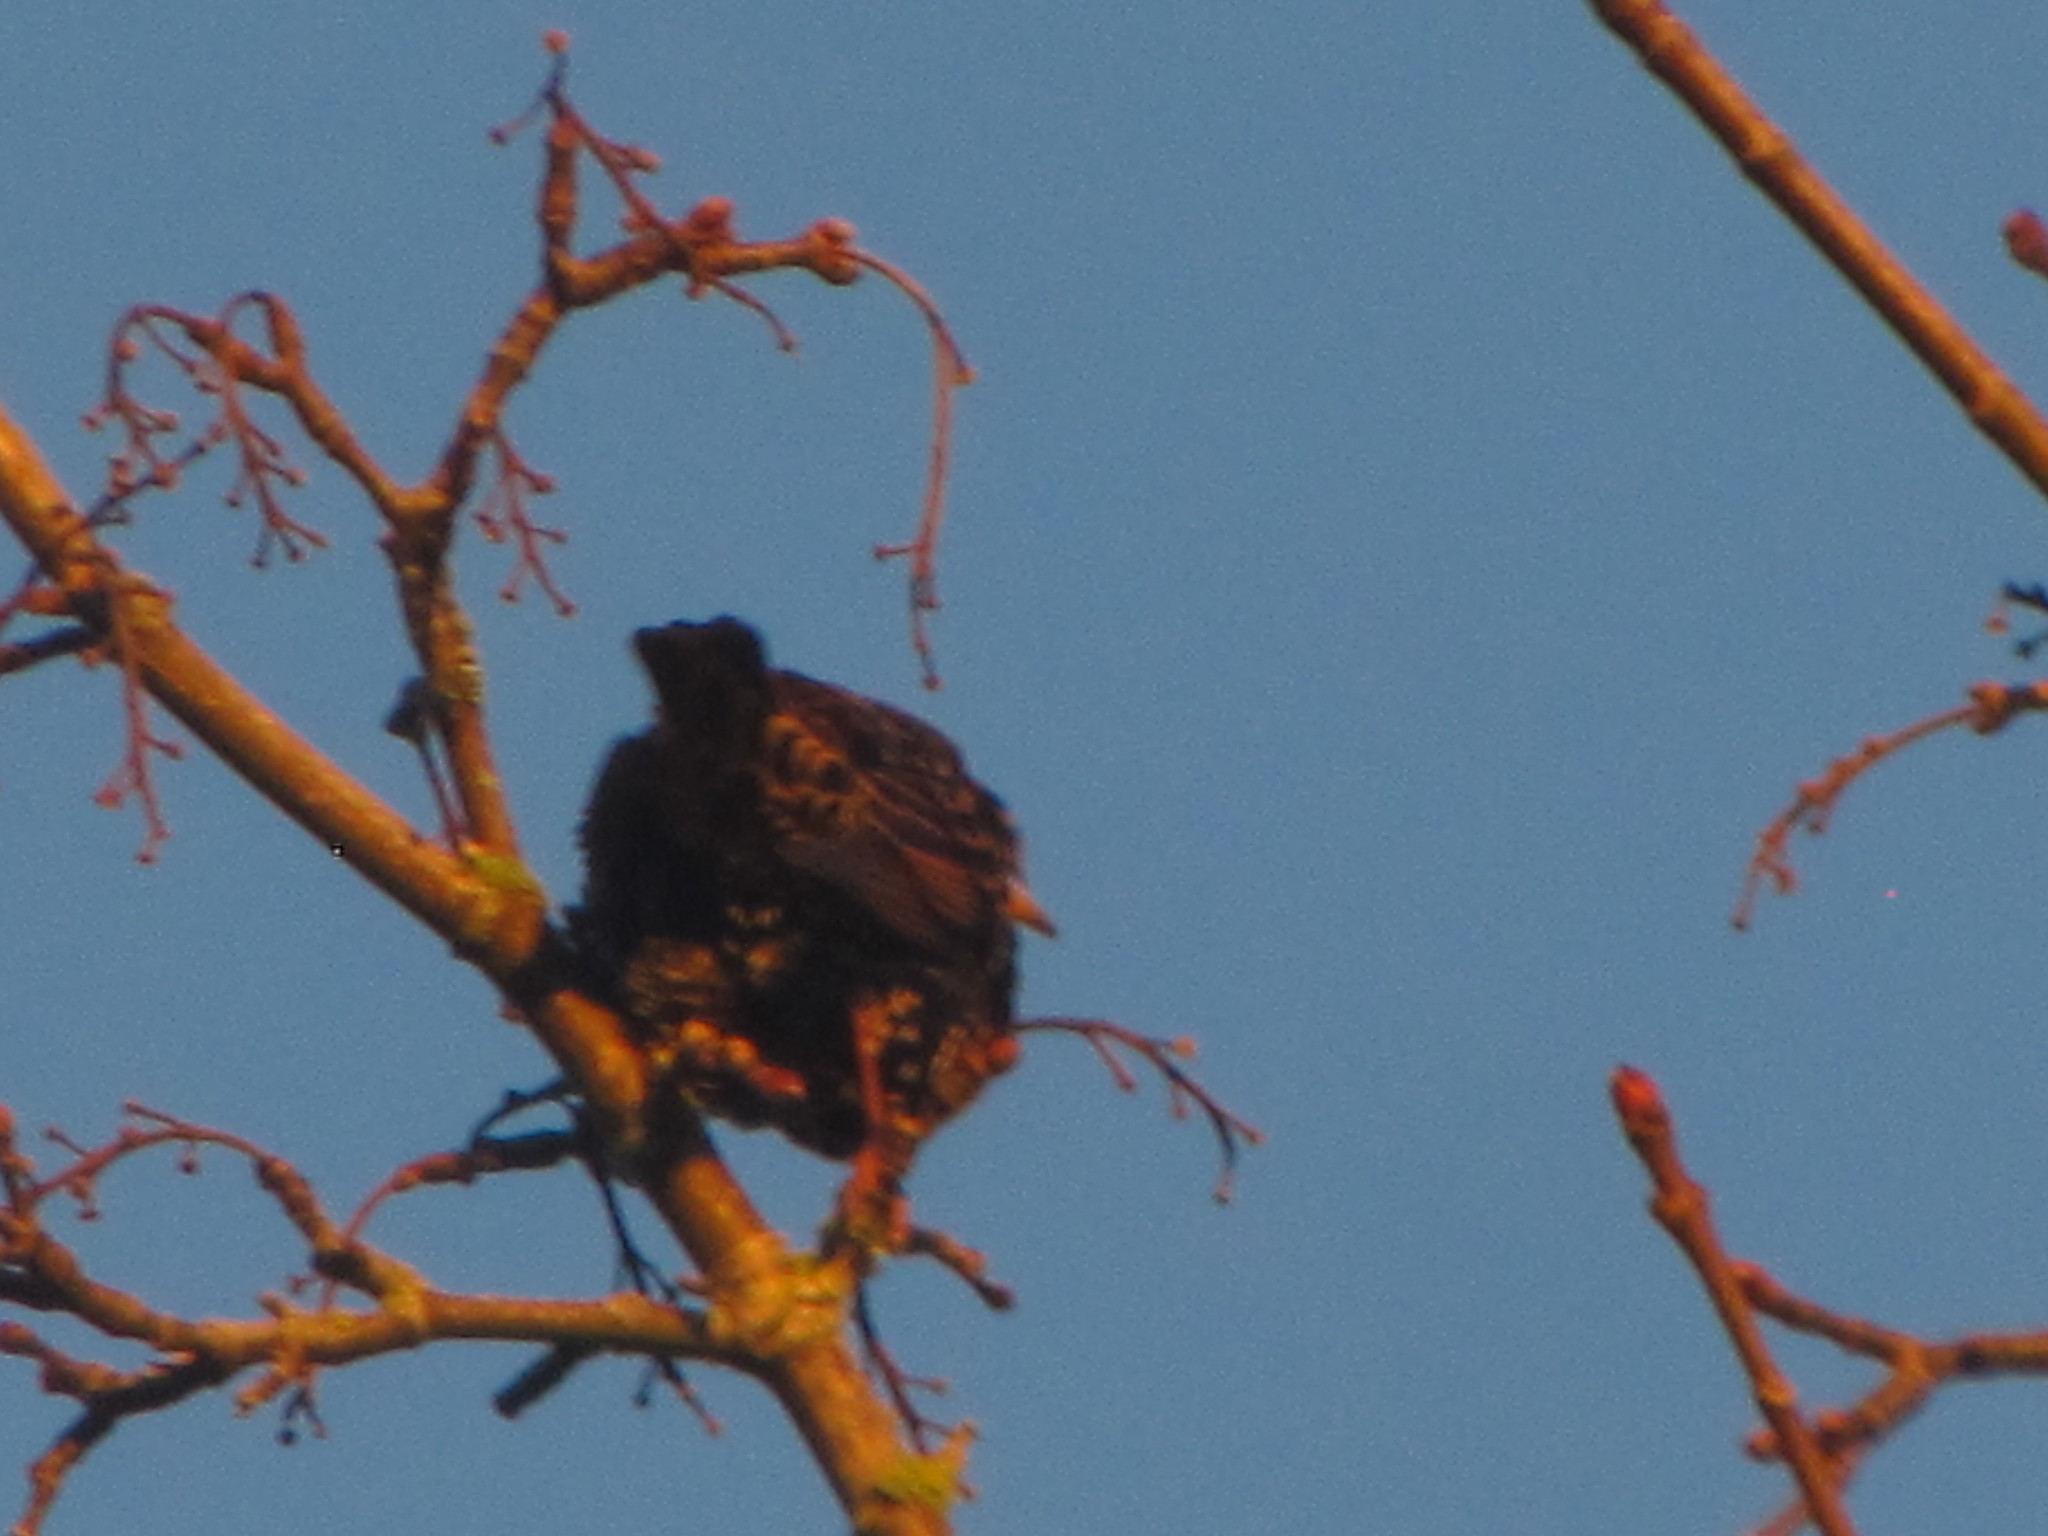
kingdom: Animalia
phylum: Chordata
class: Aves
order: Passeriformes
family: Sturnidae
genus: Sturnus
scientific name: Sturnus vulgaris
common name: Common starling
